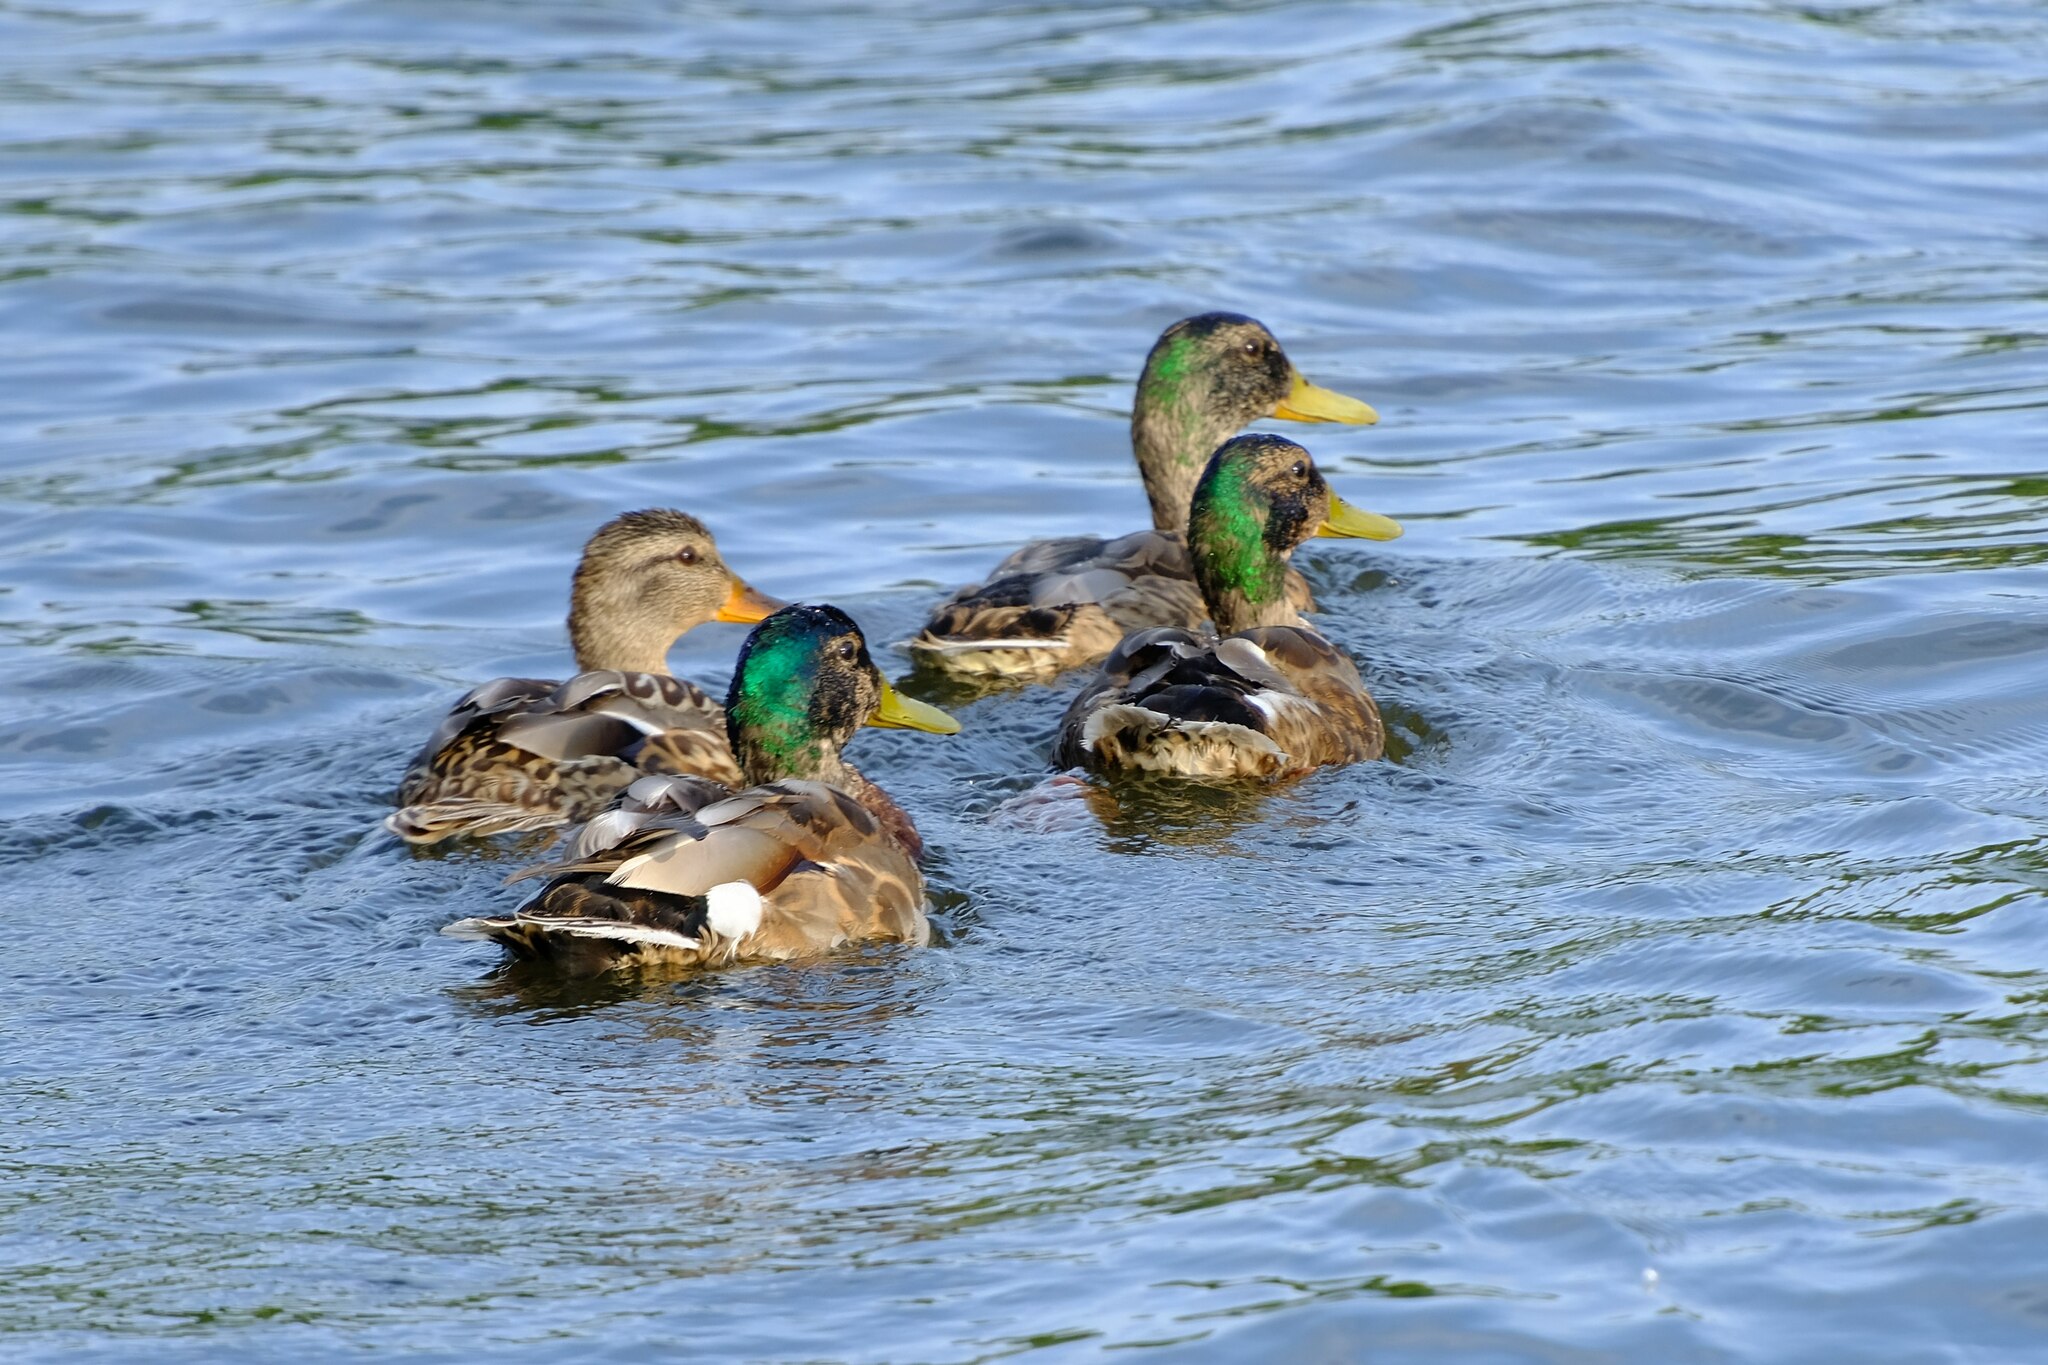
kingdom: Animalia
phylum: Chordata
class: Aves
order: Anseriformes
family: Anatidae
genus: Anas
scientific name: Anas platyrhynchos
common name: Mallard
